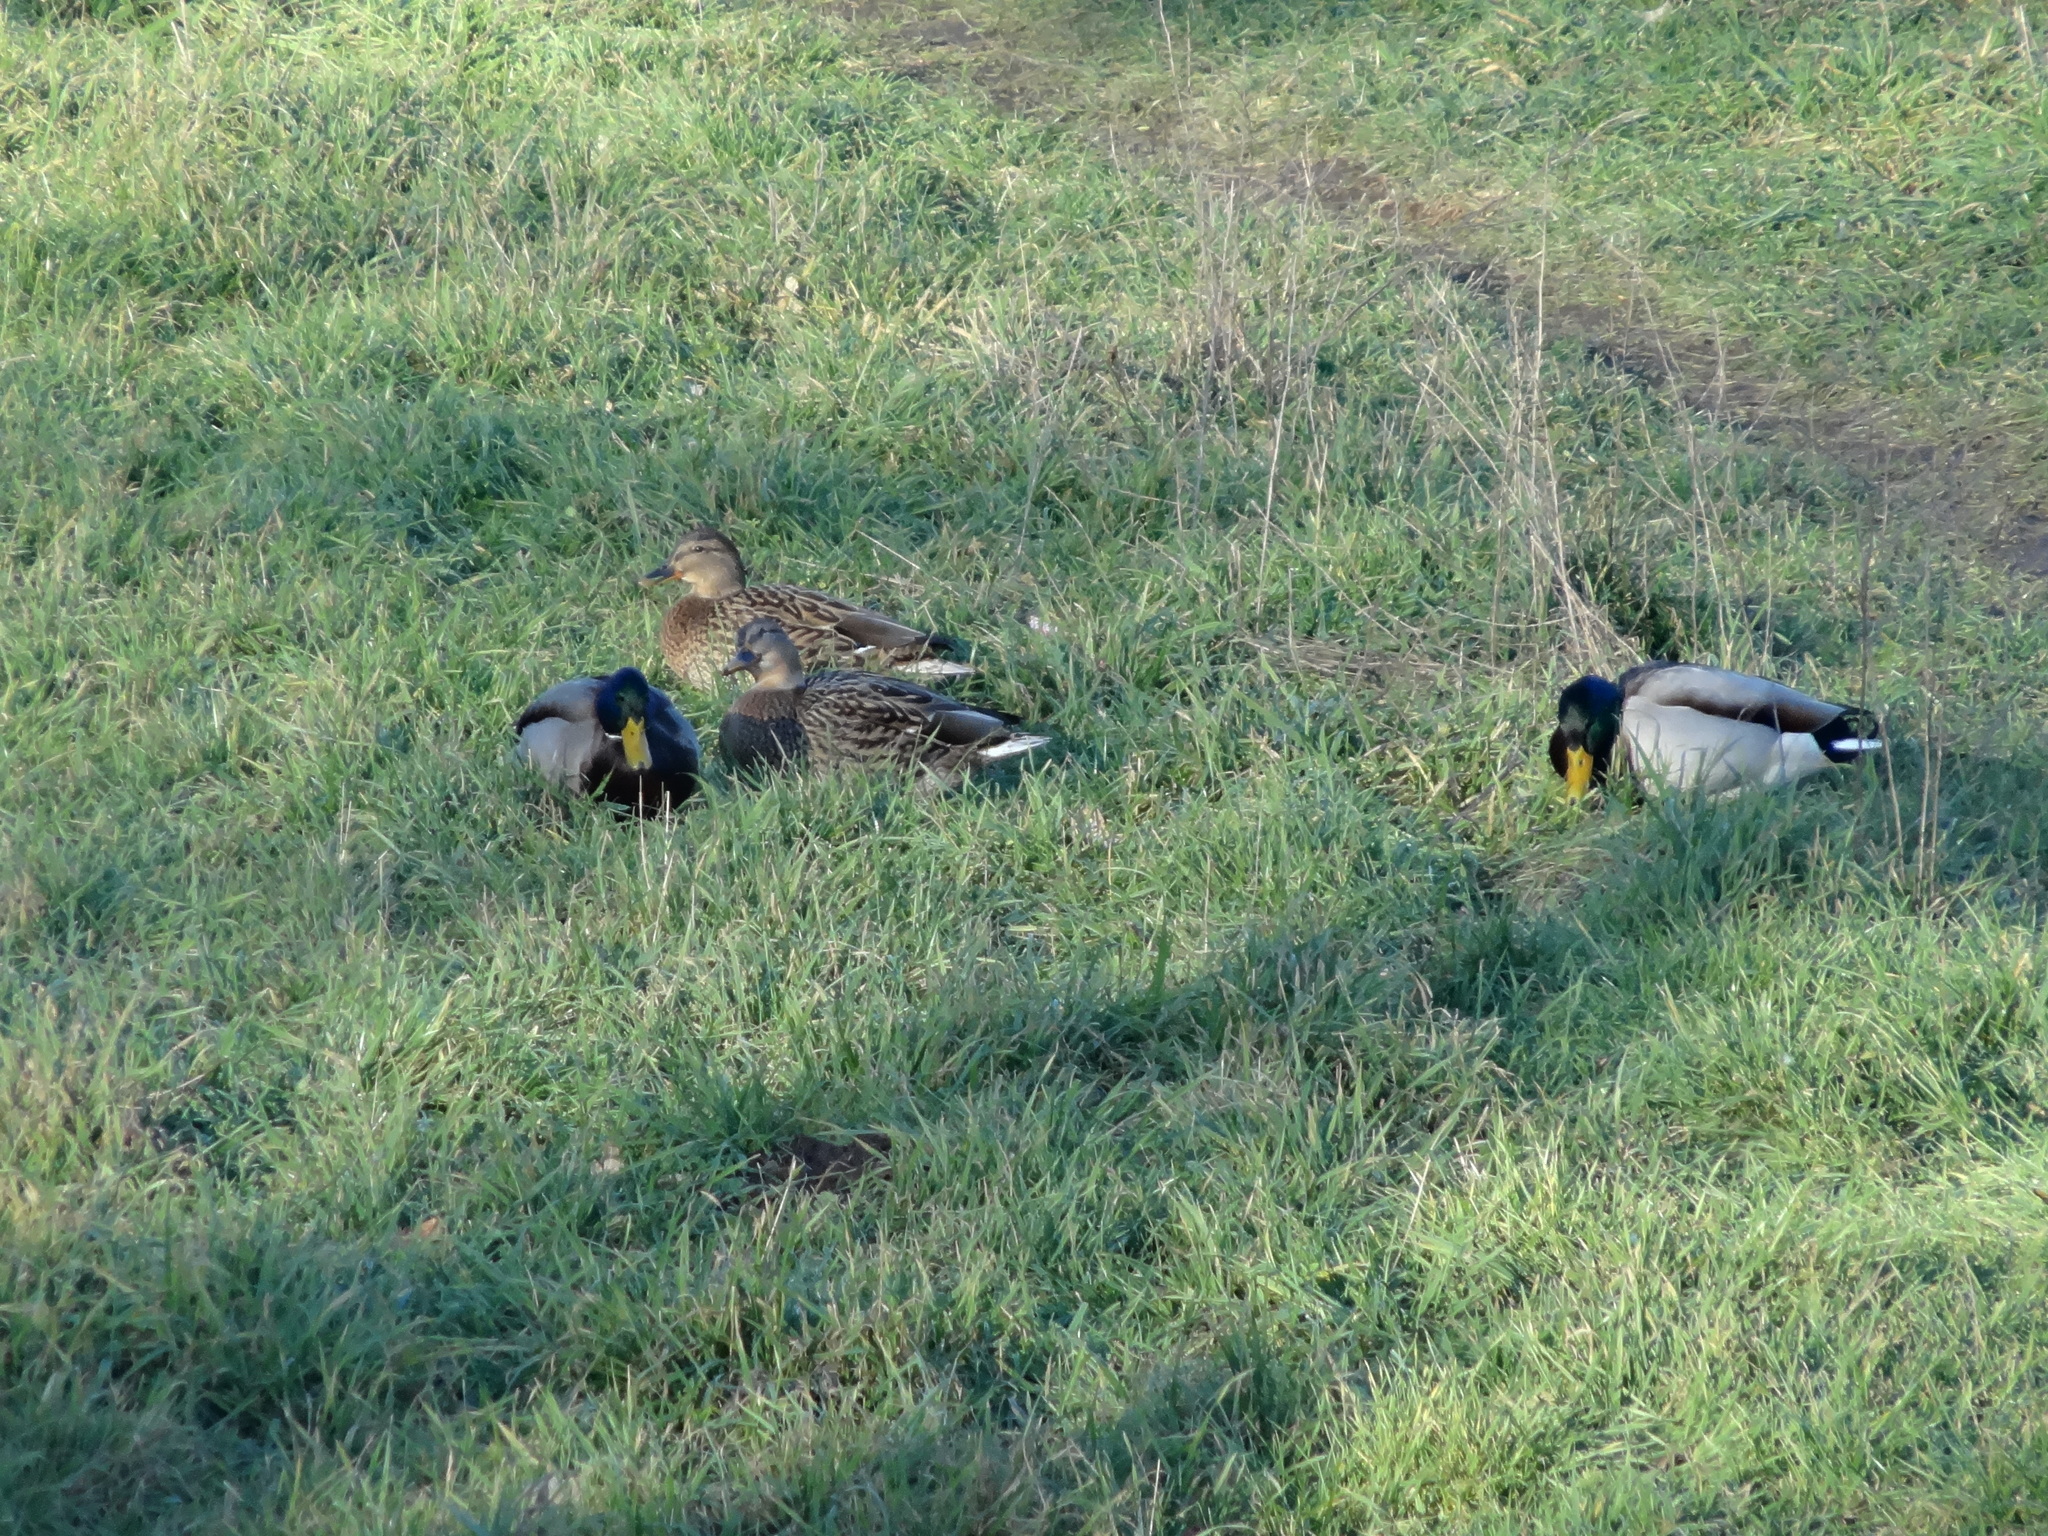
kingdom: Animalia
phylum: Chordata
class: Aves
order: Anseriformes
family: Anatidae
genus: Anas
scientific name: Anas platyrhynchos
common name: Mallard
